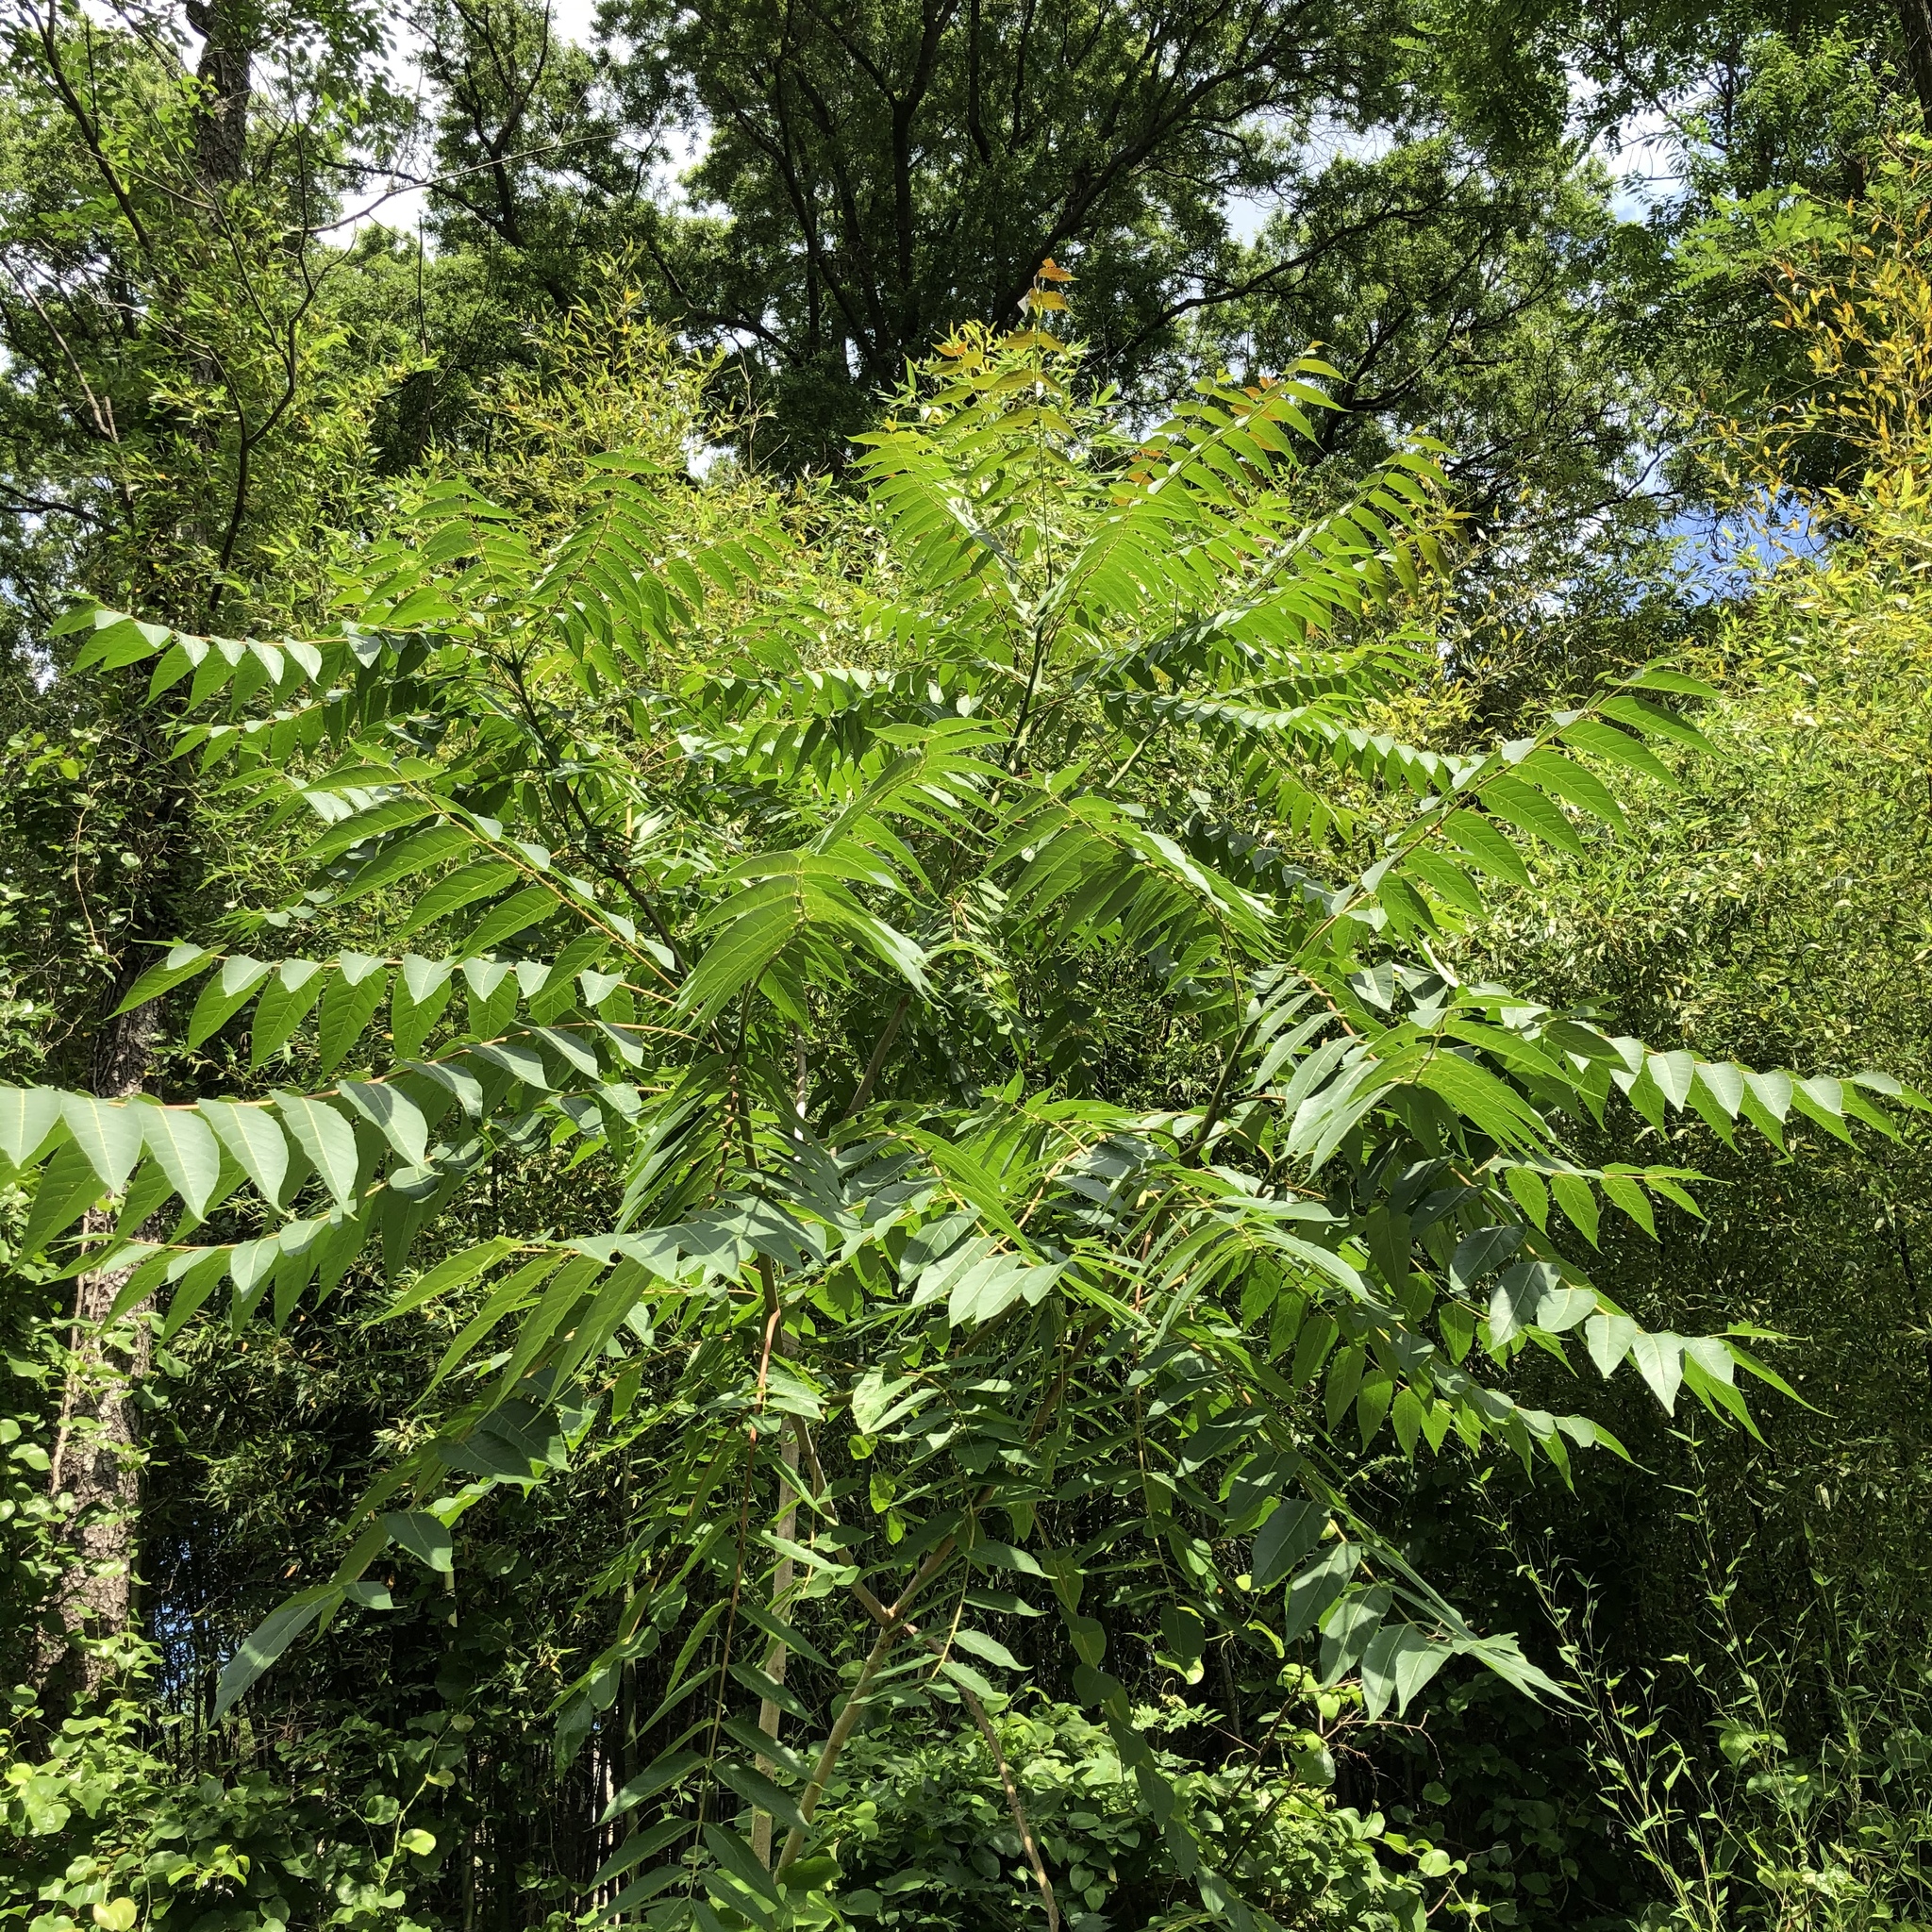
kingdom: Plantae
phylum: Tracheophyta
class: Magnoliopsida
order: Sapindales
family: Simaroubaceae
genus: Ailanthus
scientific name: Ailanthus altissima
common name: Tree-of-heaven
